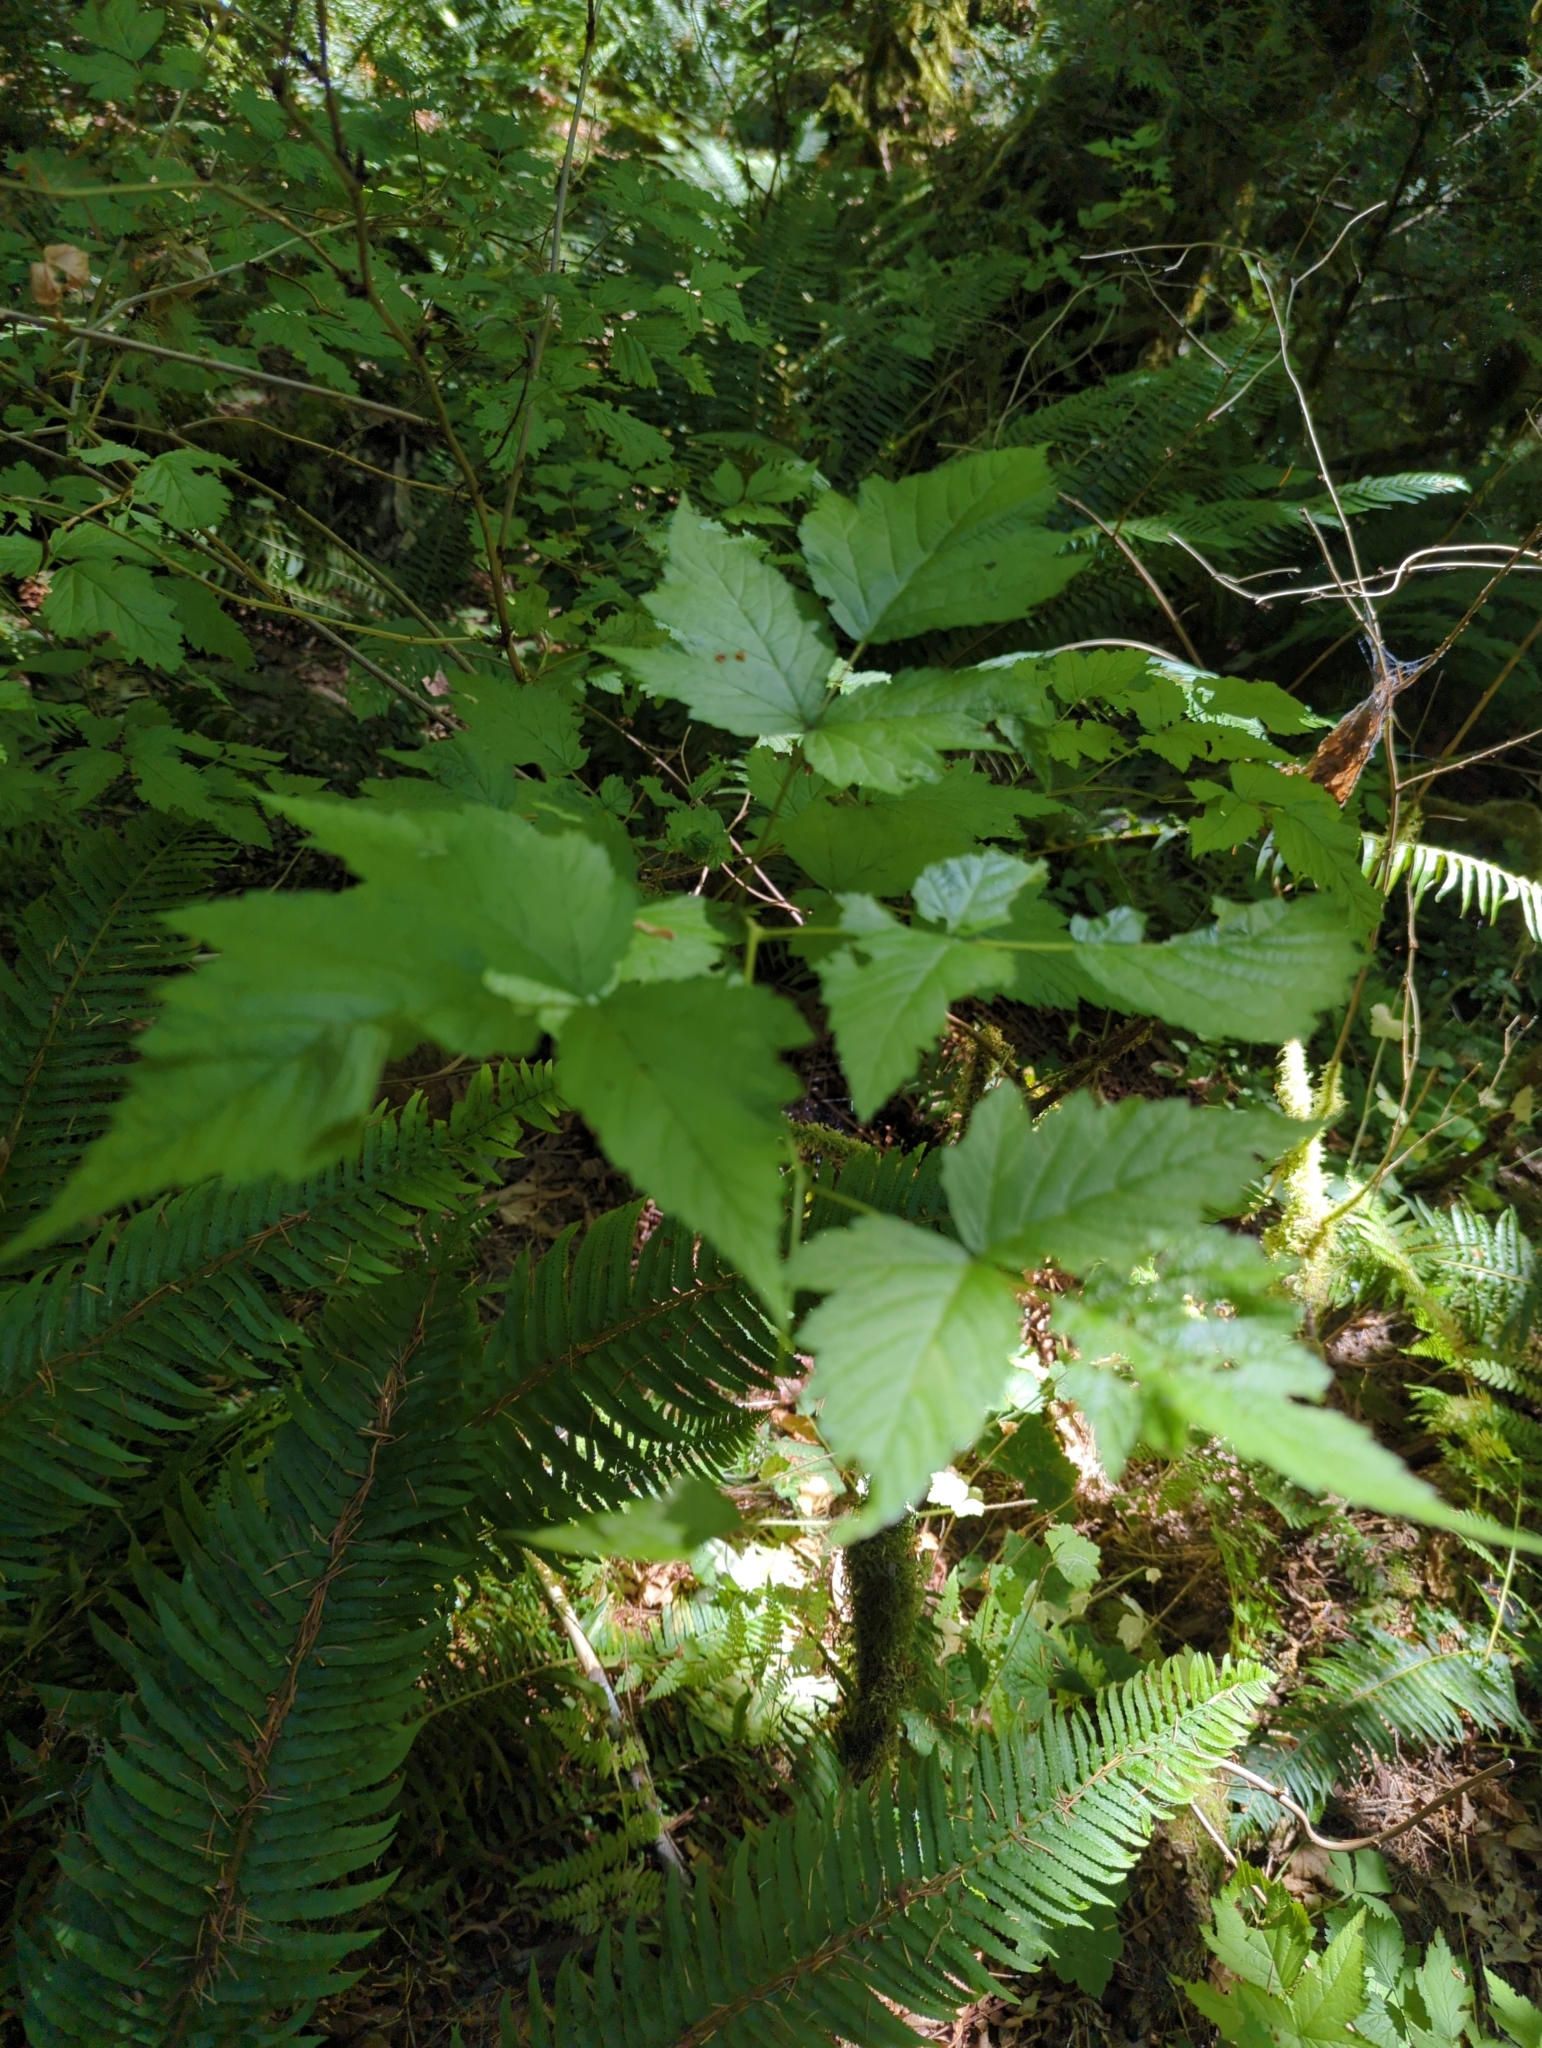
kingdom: Plantae
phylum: Tracheophyta
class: Magnoliopsida
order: Rosales
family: Rosaceae
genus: Rubus
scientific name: Rubus spectabilis
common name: Salmonberry
